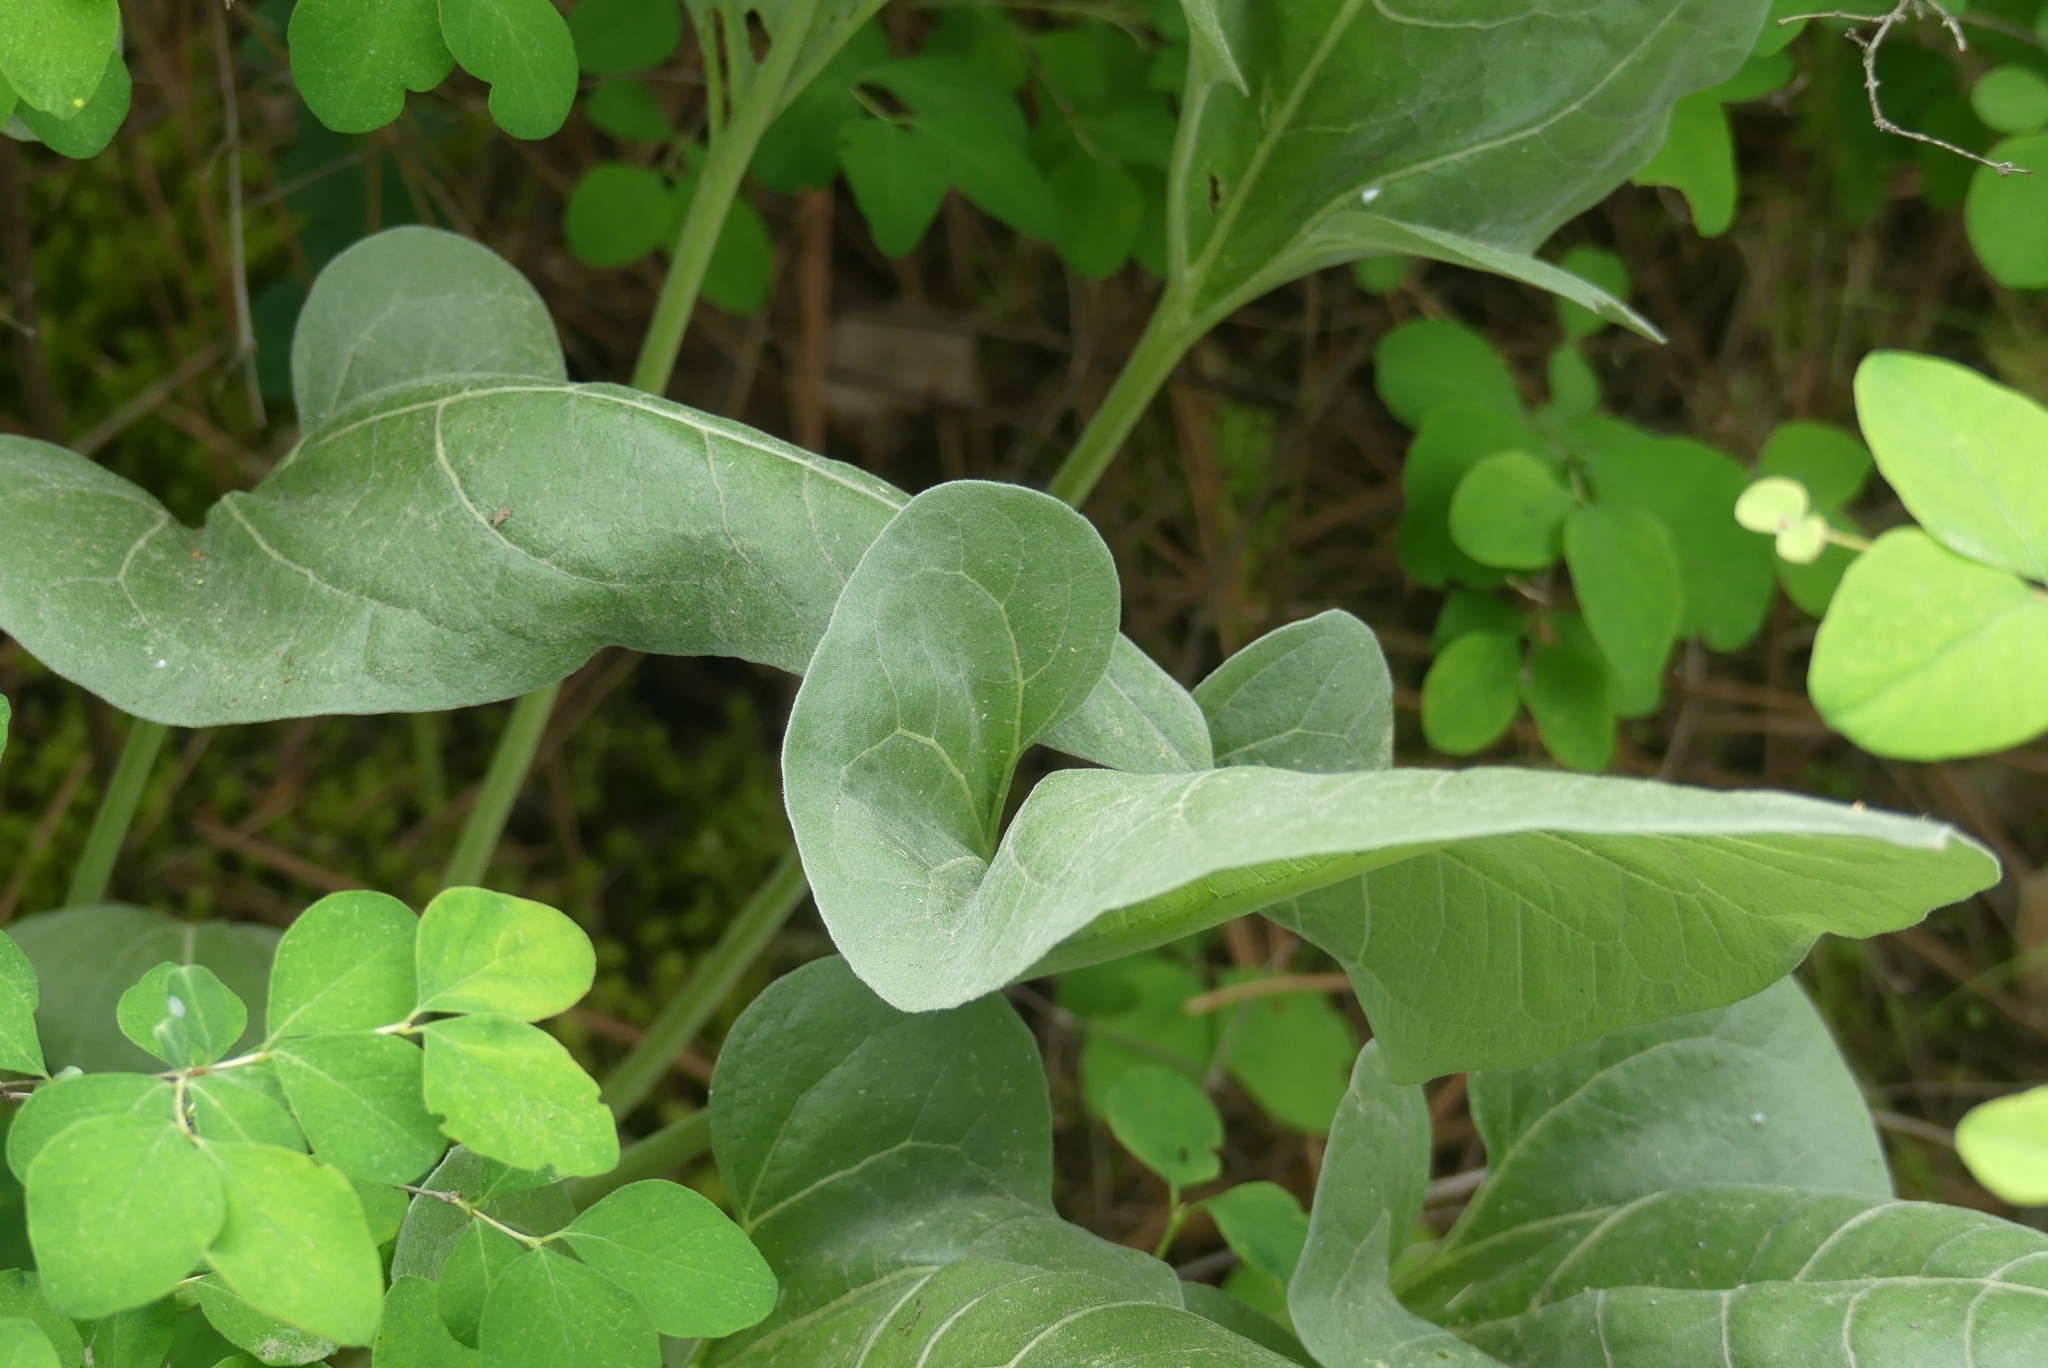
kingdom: Plantae
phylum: Tracheophyta
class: Magnoliopsida
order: Asterales
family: Asteraceae
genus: Wyethia
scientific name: Wyethia sagittata
